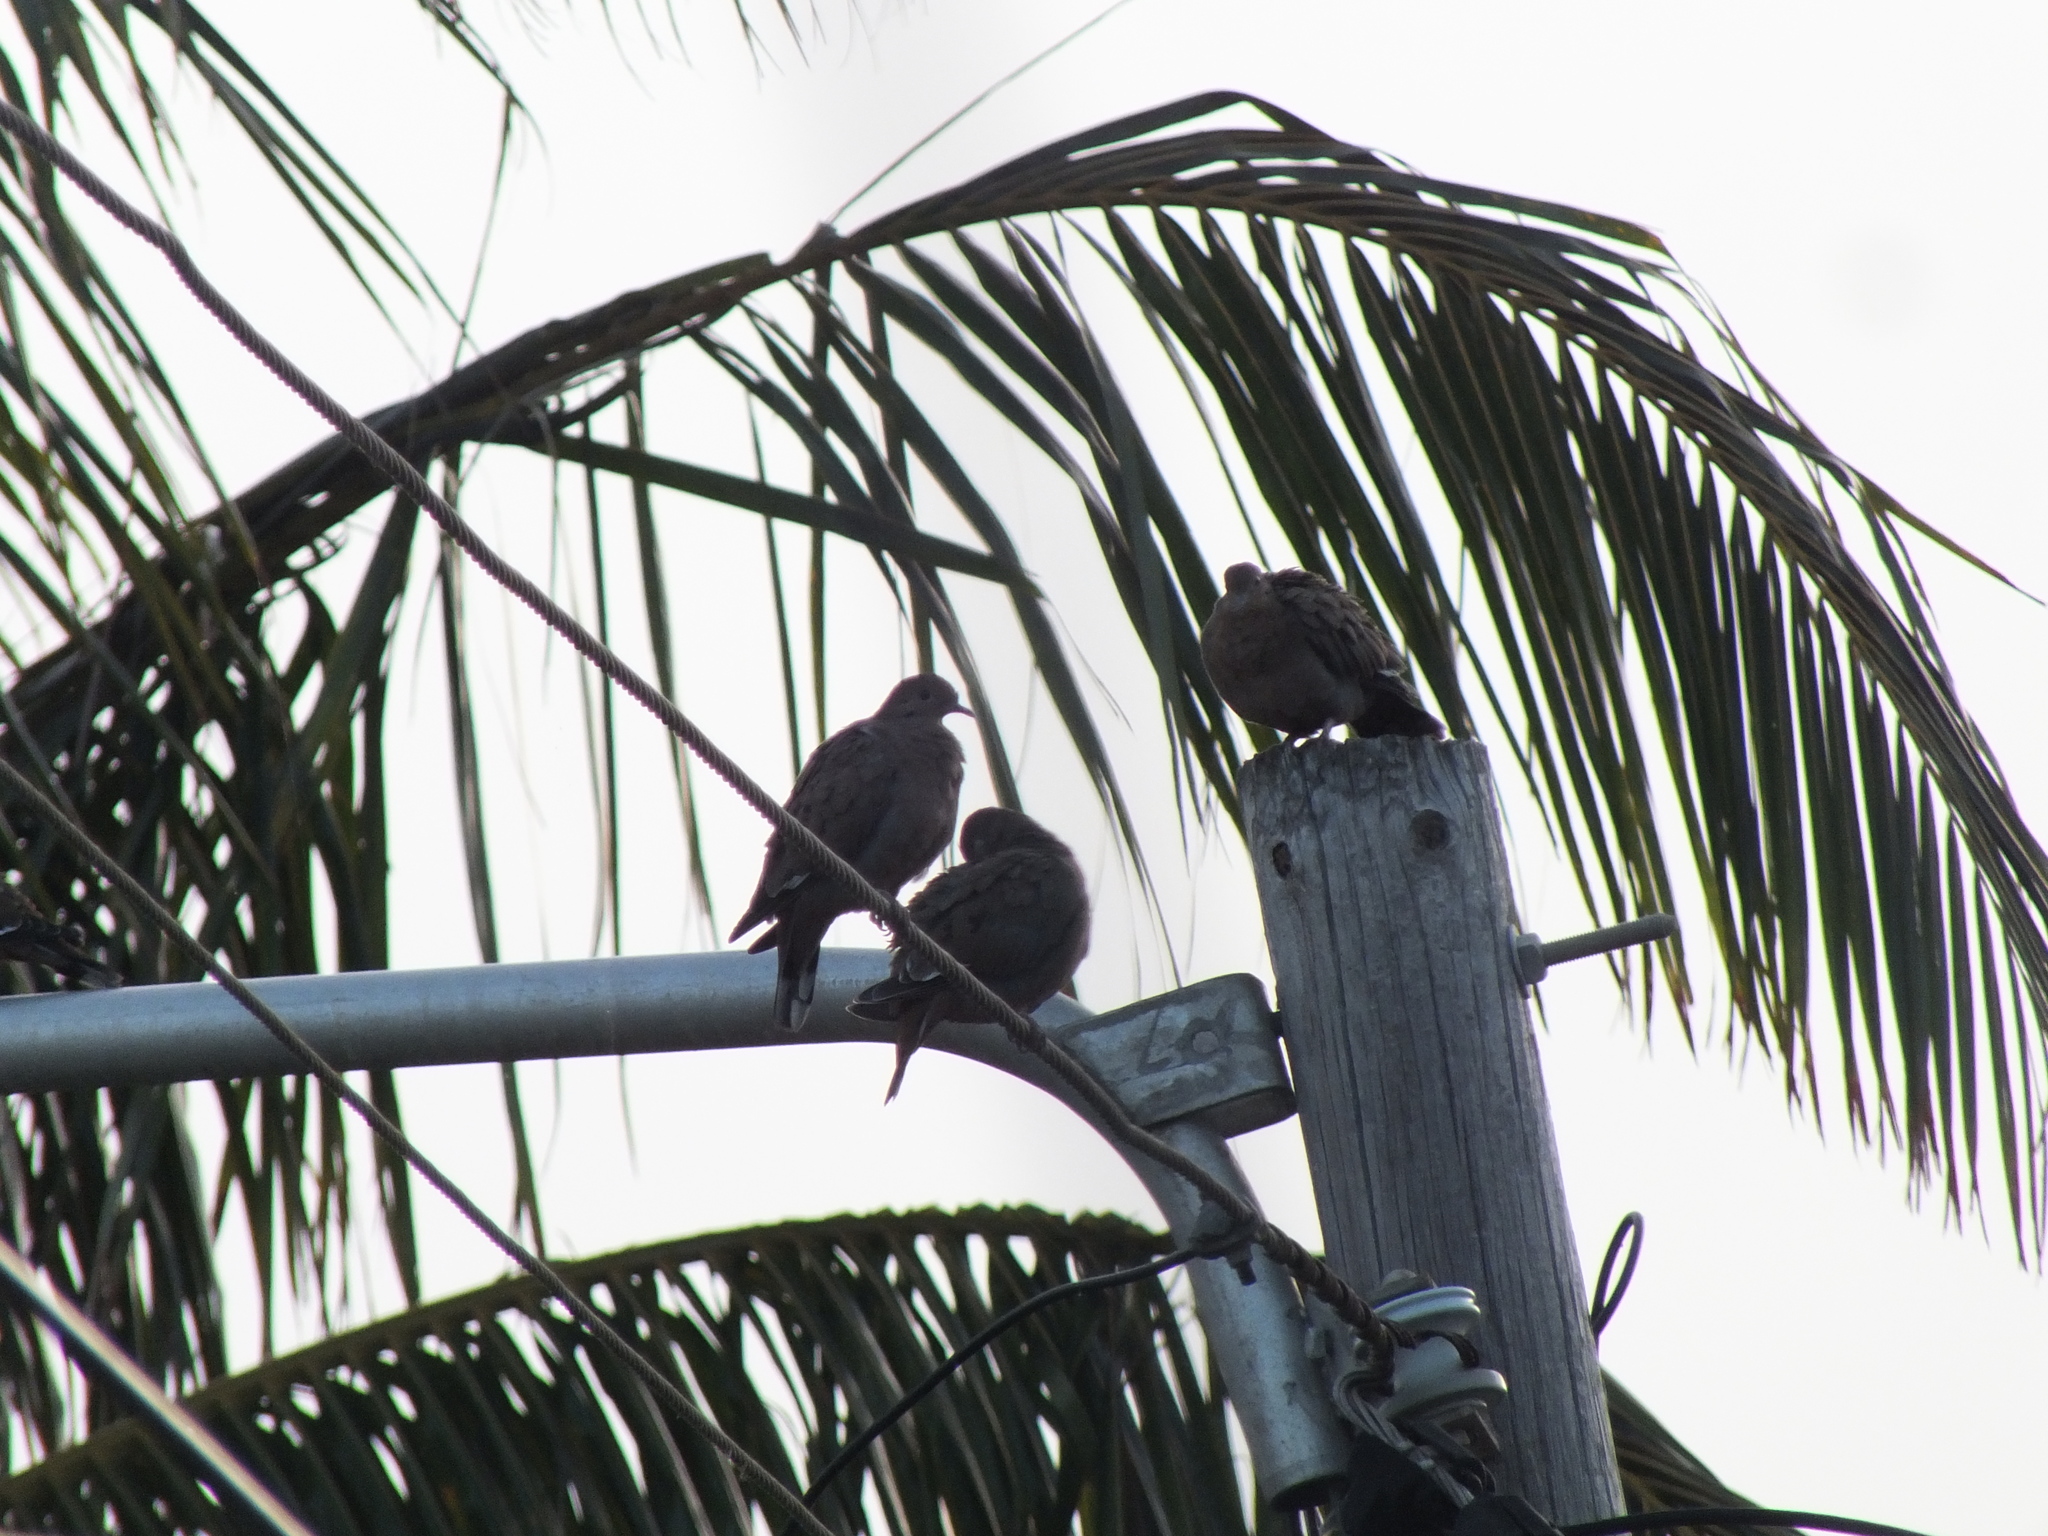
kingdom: Animalia
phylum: Chordata
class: Aves
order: Columbiformes
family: Columbidae
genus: Zenaida
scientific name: Zenaida aurita
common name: Zenaida dove
